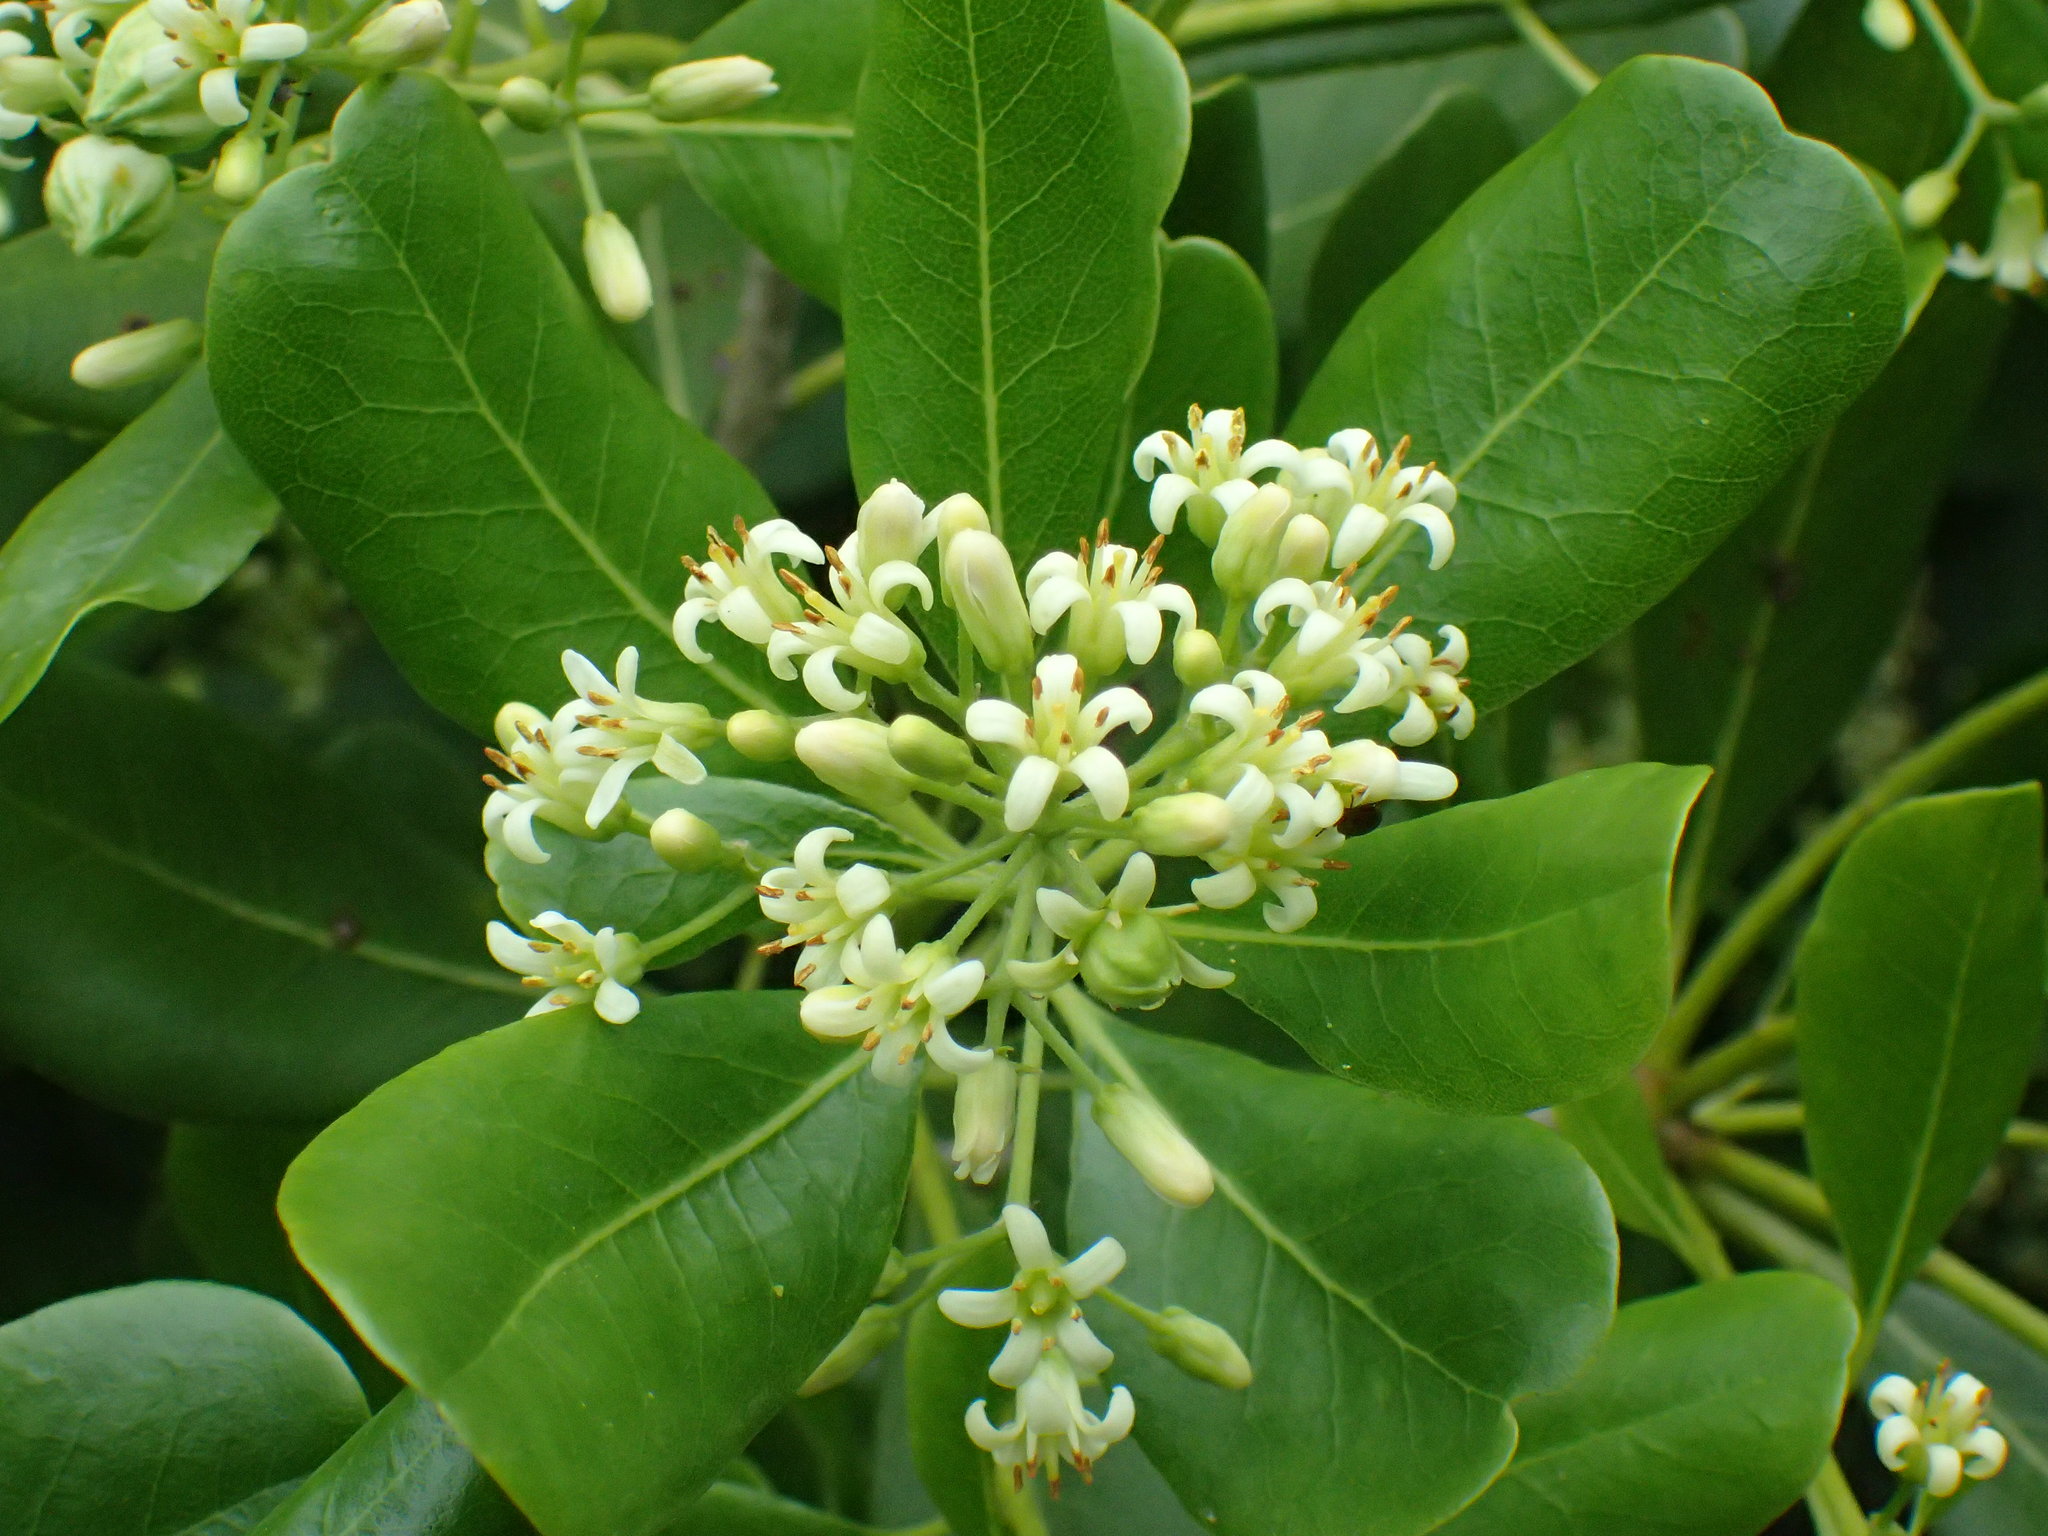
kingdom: Plantae
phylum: Tracheophyta
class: Magnoliopsida
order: Apiales
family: Pittosporaceae
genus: Pittosporum
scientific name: Pittosporum viridiflorum
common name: Cape cheesewood
